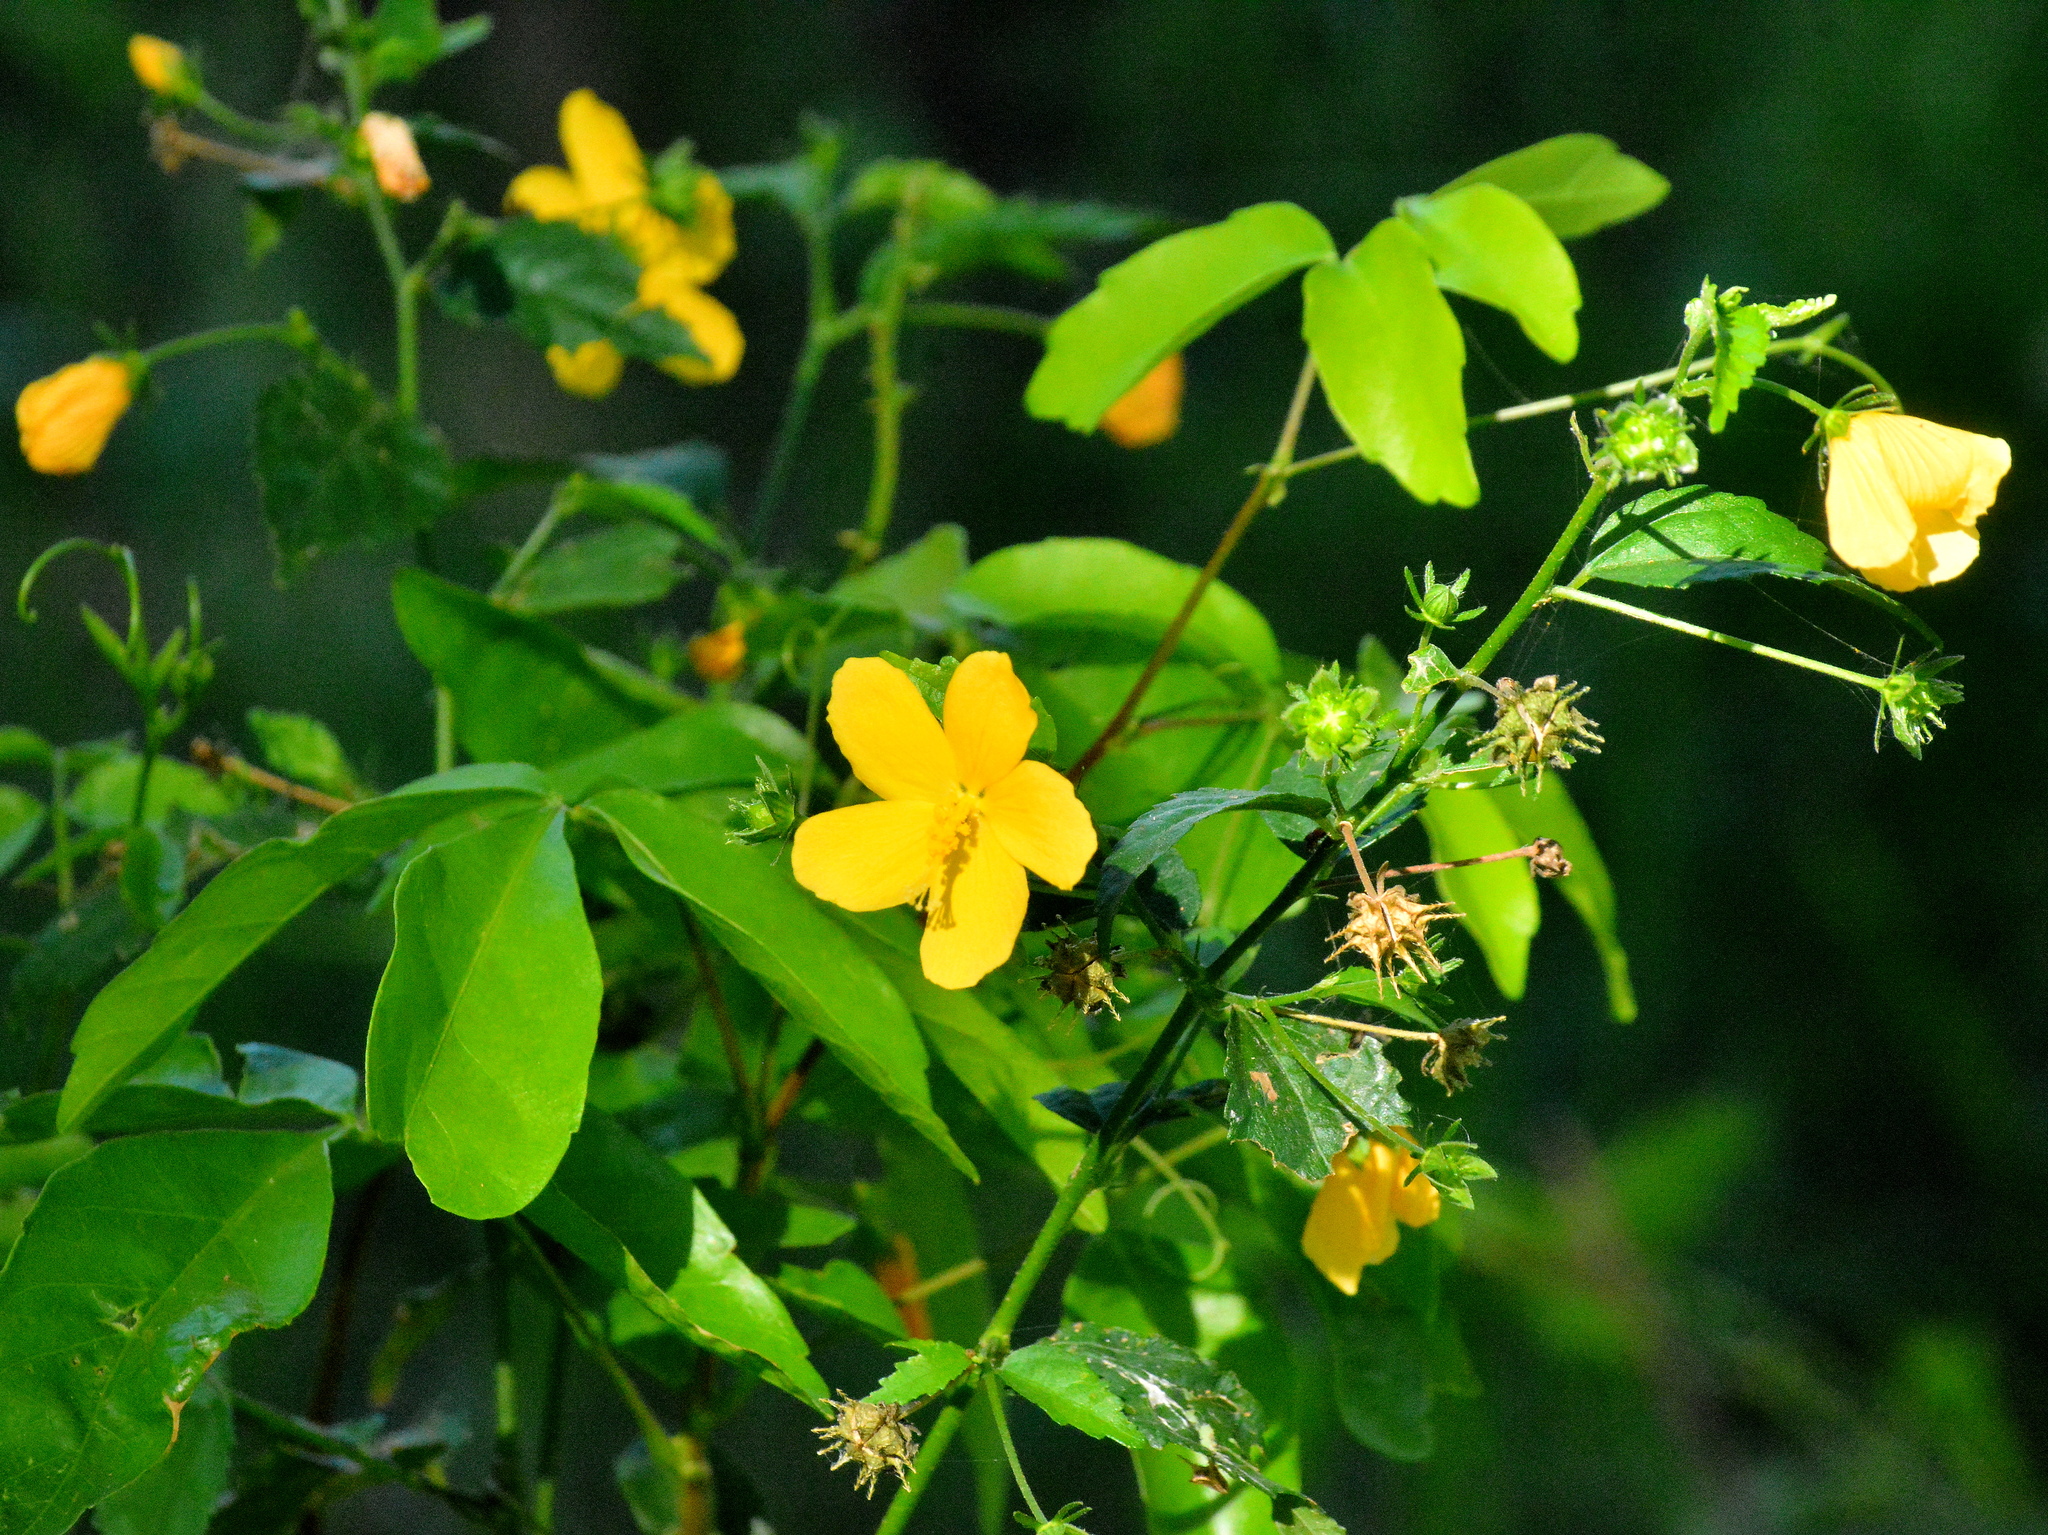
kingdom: Plantae
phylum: Tracheophyta
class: Magnoliopsida
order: Malvales
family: Malvaceae
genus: Pavonia
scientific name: Pavonia sepium
